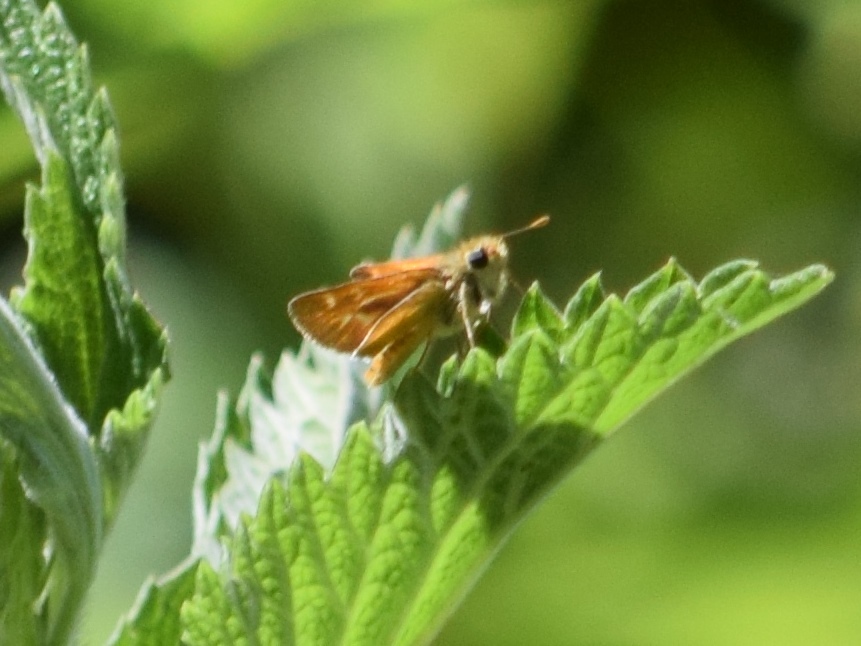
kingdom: Animalia
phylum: Arthropoda
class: Insecta
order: Lepidoptera
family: Hesperiidae
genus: Ochlodes
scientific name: Ochlodes agricola
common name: Rural skipper
